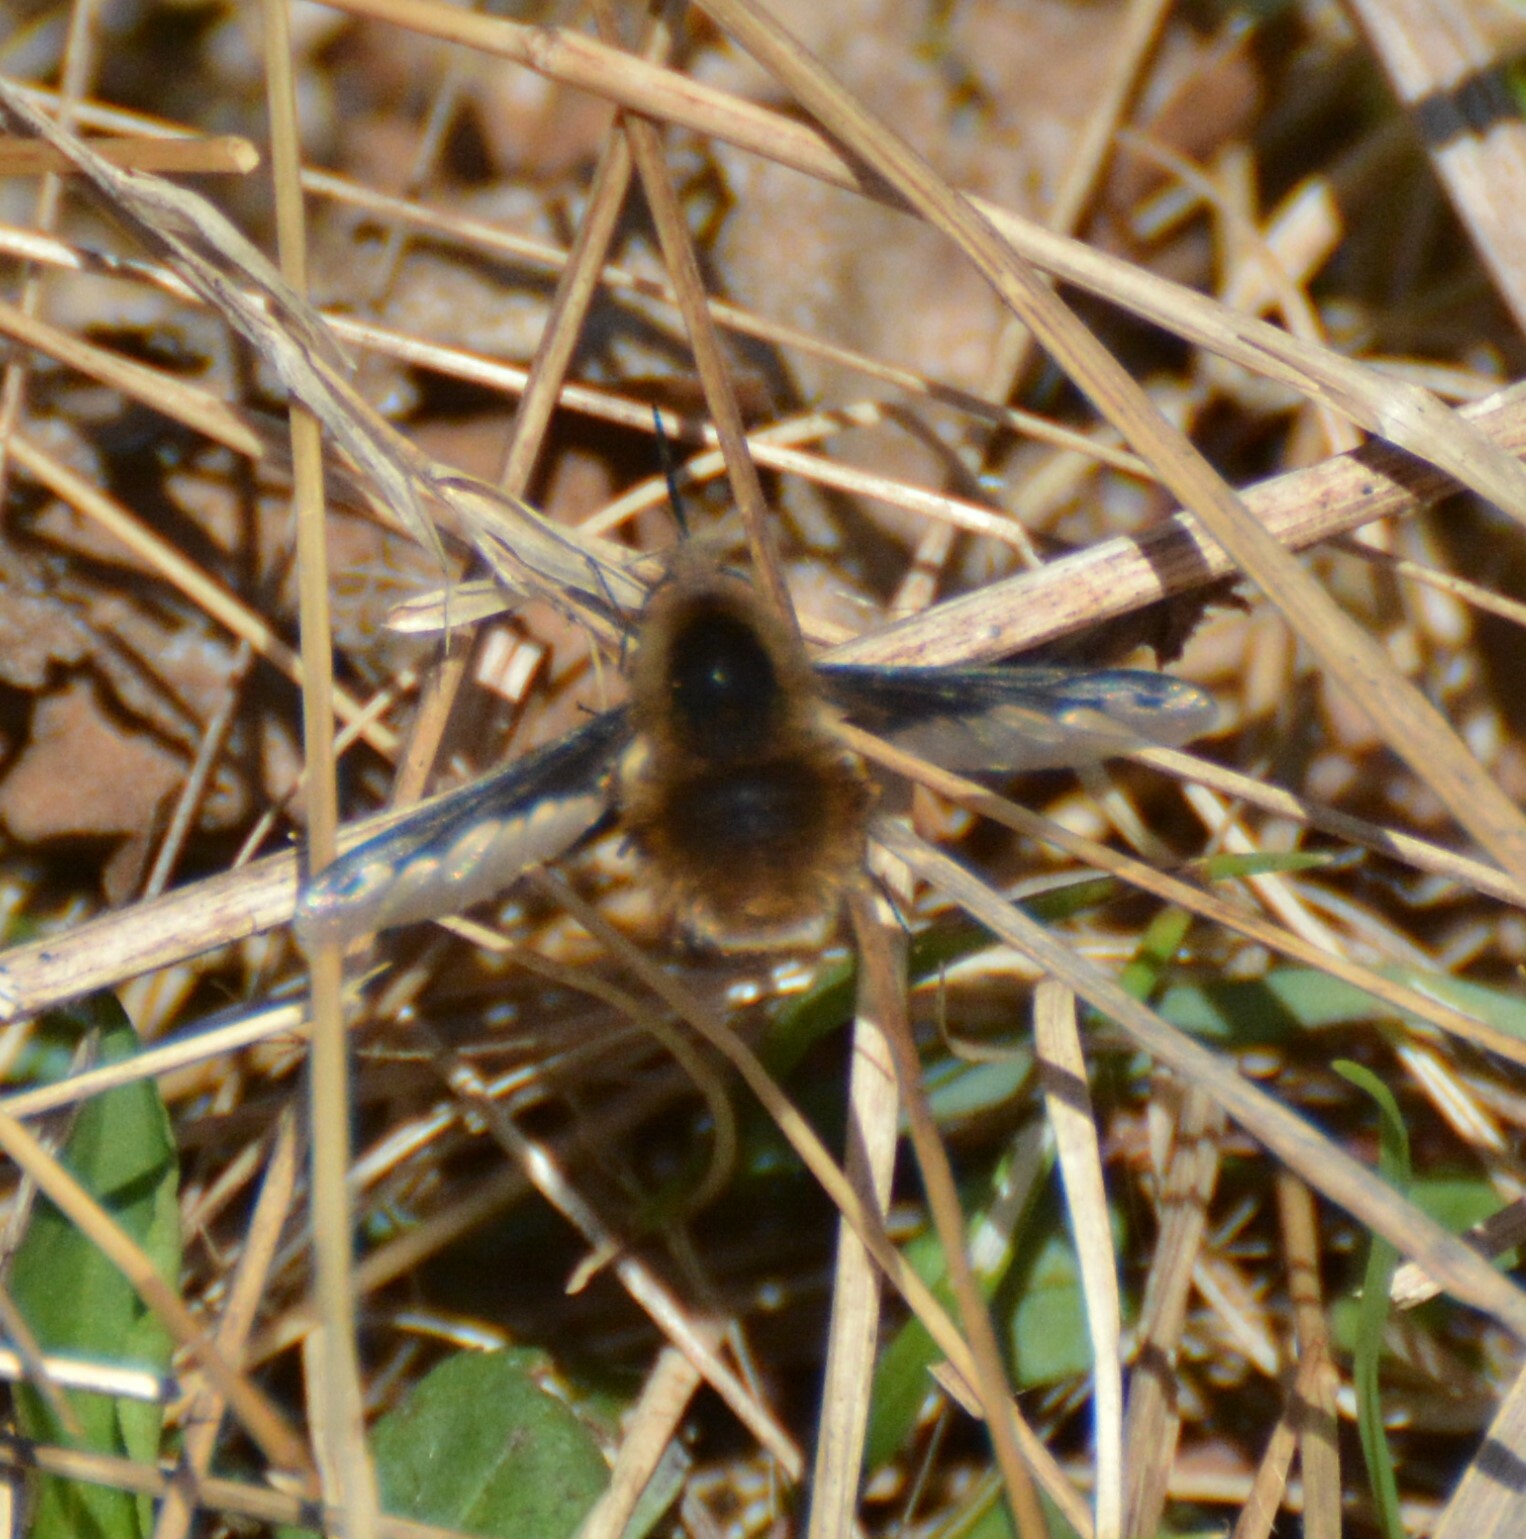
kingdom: Animalia
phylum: Arthropoda
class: Insecta
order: Diptera
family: Bombyliidae
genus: Bombylius
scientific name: Bombylius major
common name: Bee fly
